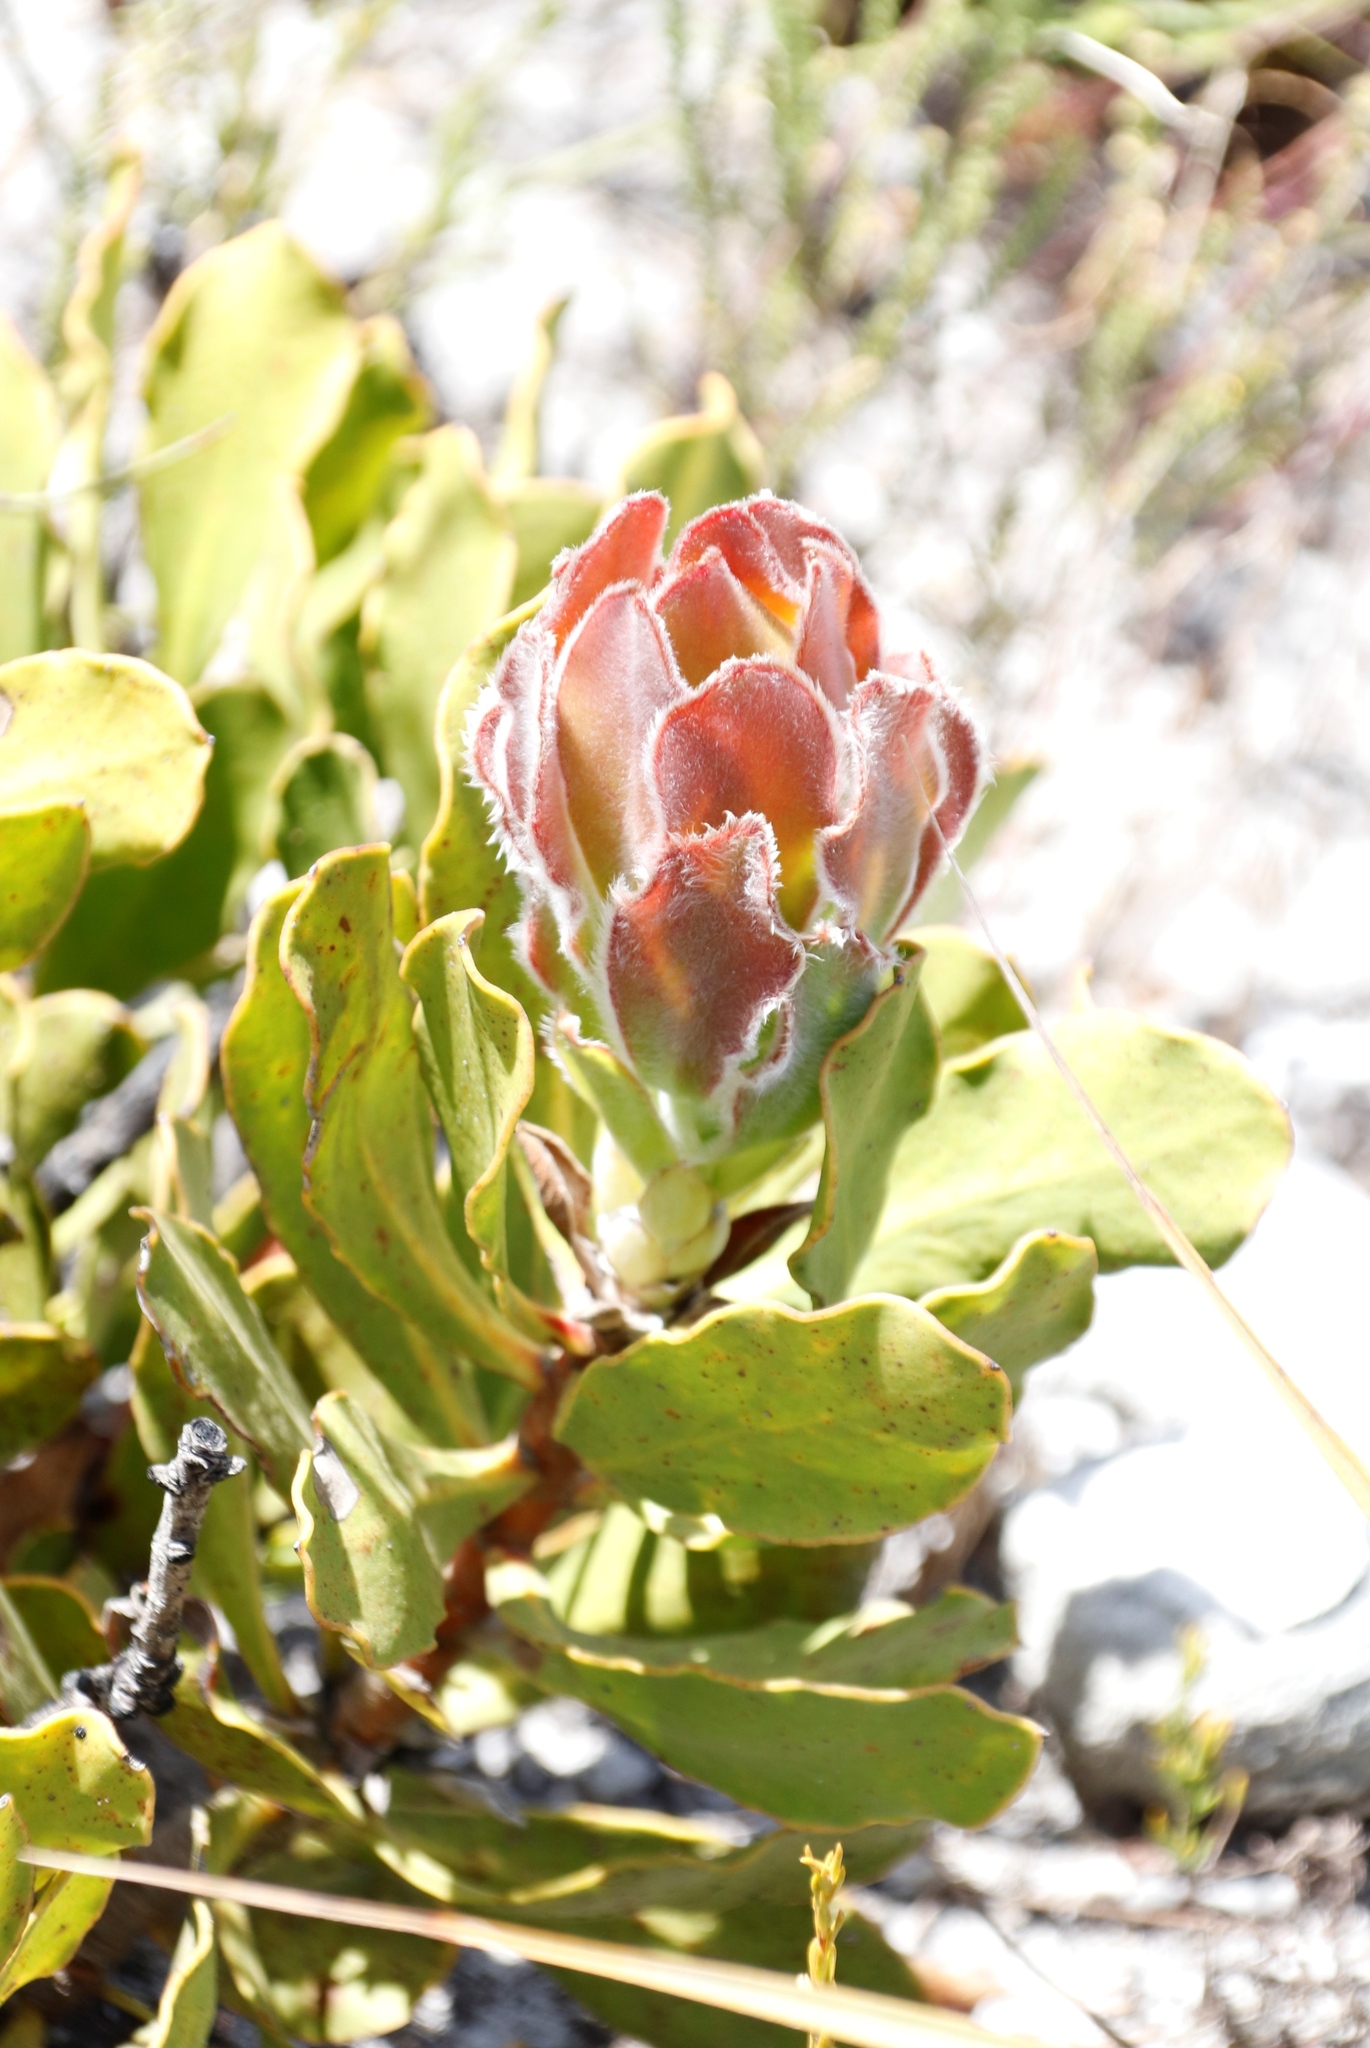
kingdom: Plantae
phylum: Tracheophyta
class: Magnoliopsida
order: Proteales
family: Proteaceae
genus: Protea
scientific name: Protea speciosa
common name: Brown-beard sugarbush
